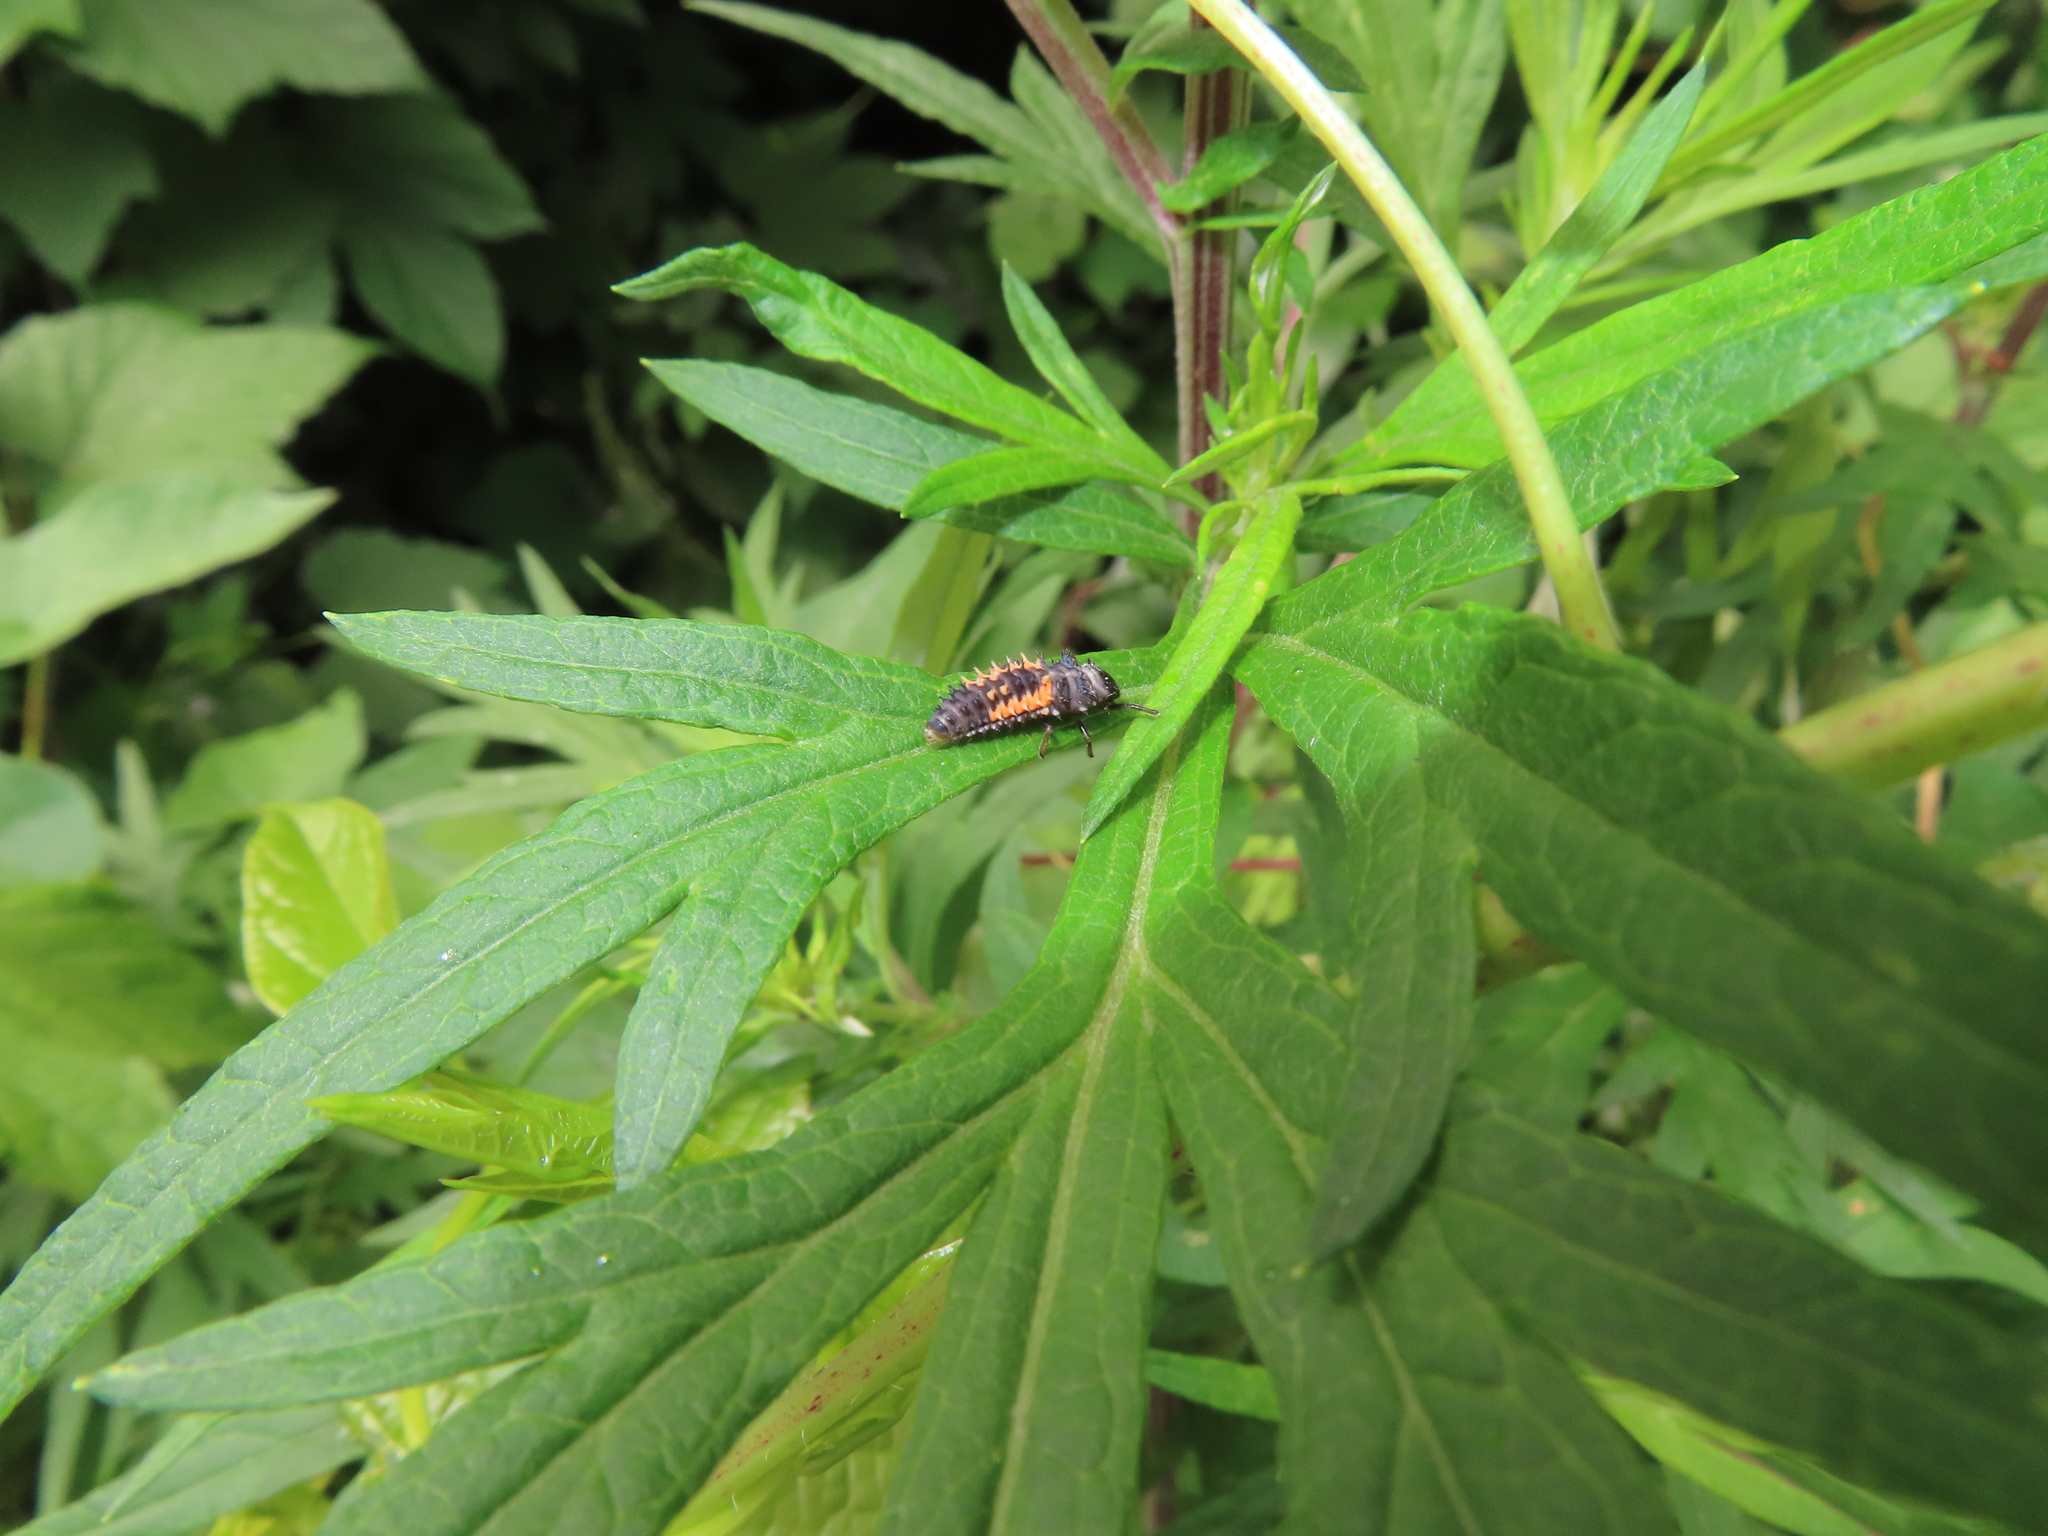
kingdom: Animalia
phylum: Arthropoda
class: Insecta
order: Coleoptera
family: Coccinellidae
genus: Harmonia
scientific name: Harmonia axyridis
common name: Harlequin ladybird
